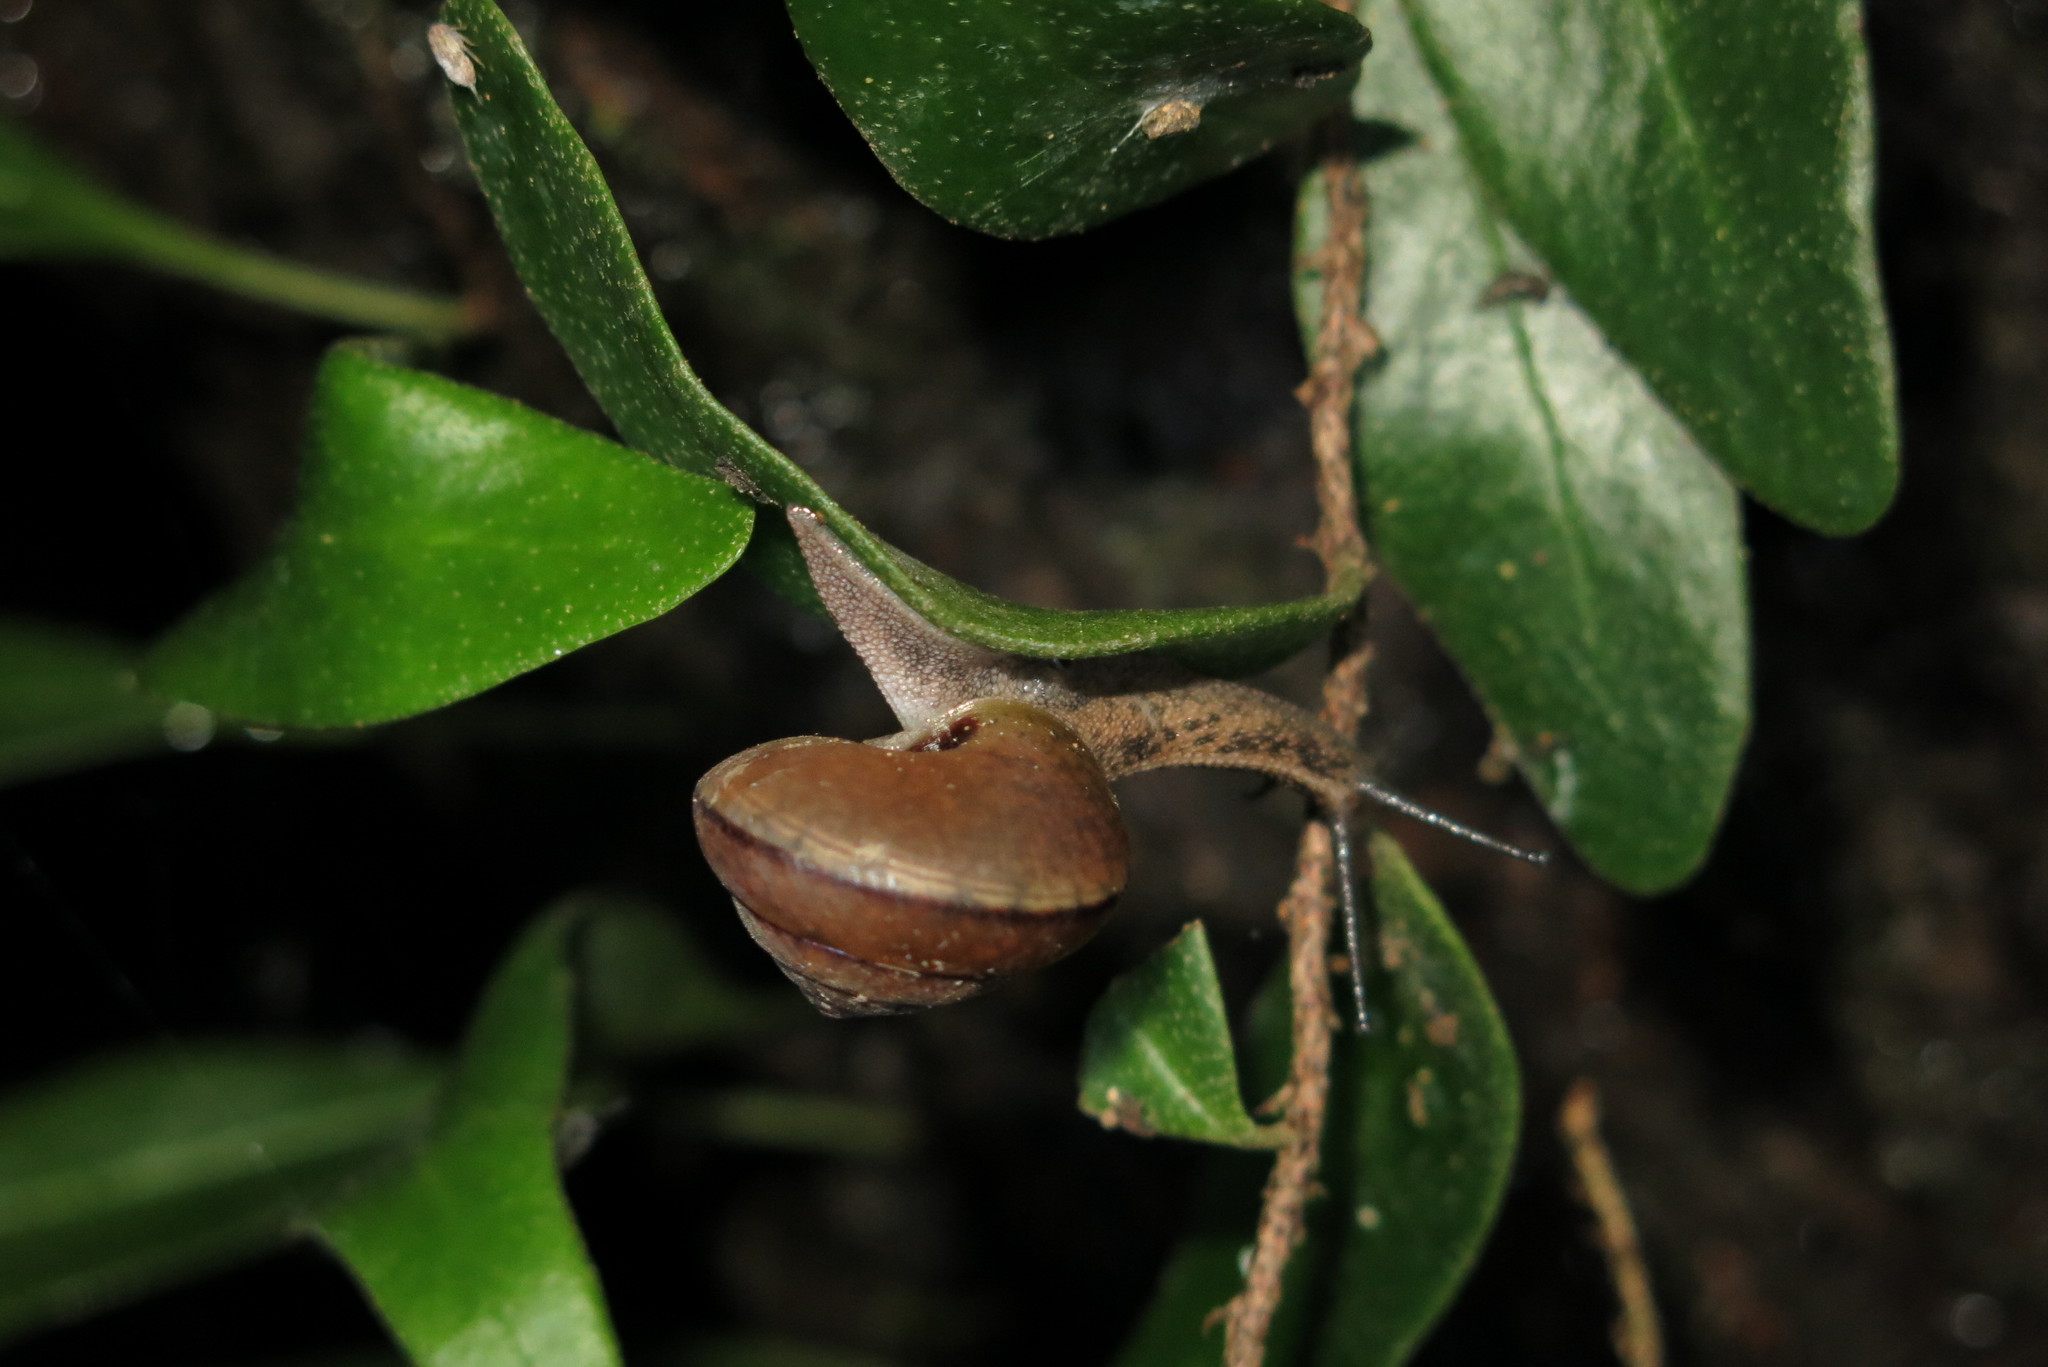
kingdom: Animalia
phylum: Mollusca
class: Gastropoda
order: Stylommatophora
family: Camaenidae
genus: Satsuma
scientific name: Satsuma nux
